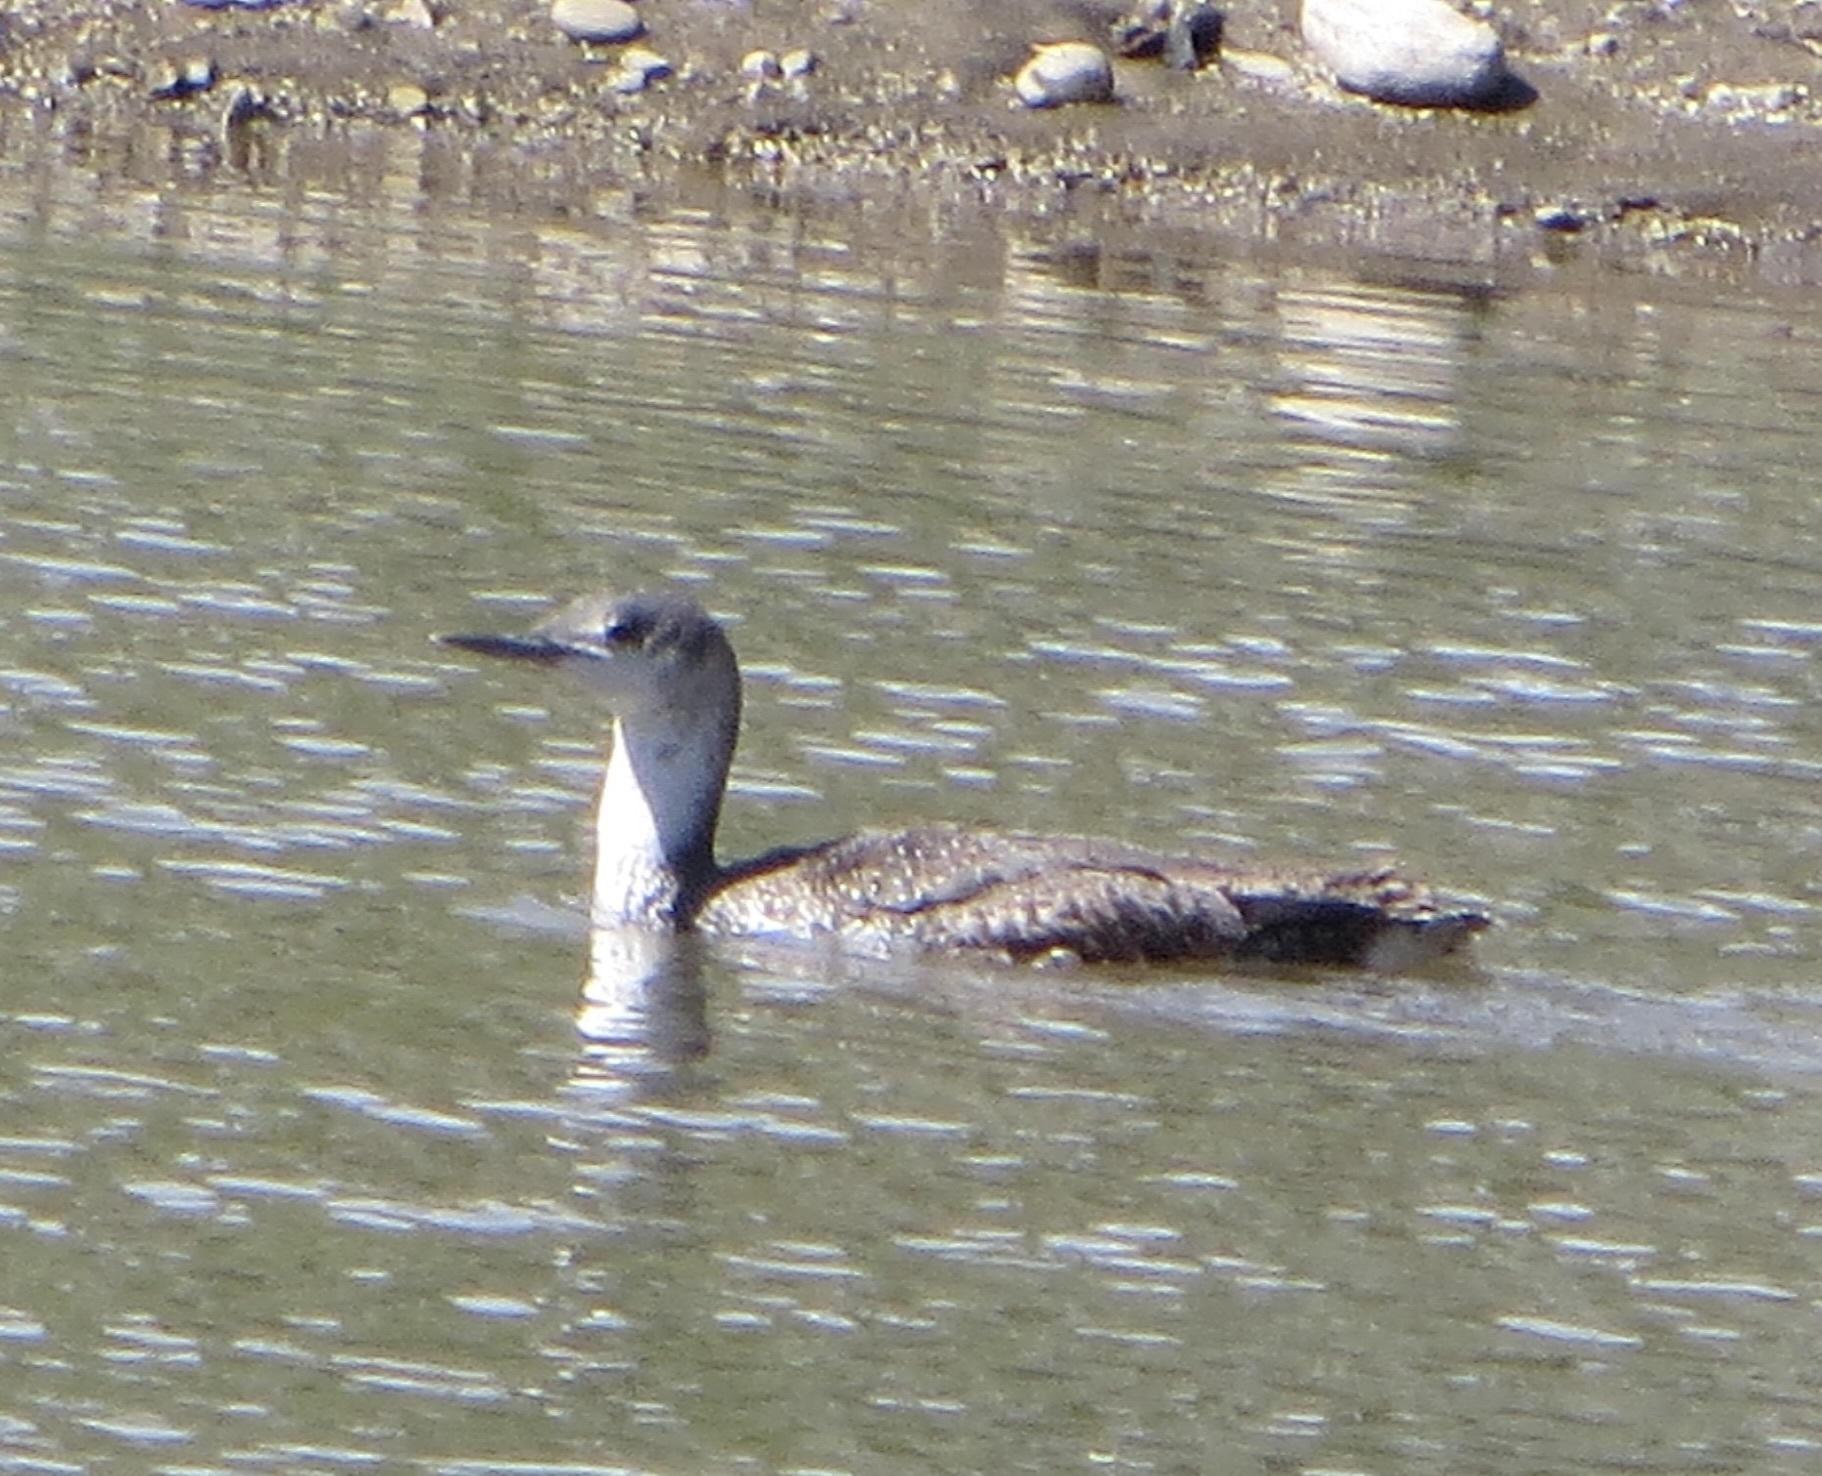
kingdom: Animalia
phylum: Chordata
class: Aves
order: Gaviiformes
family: Gaviidae
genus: Gavia
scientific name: Gavia stellata
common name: Red-throated loon
